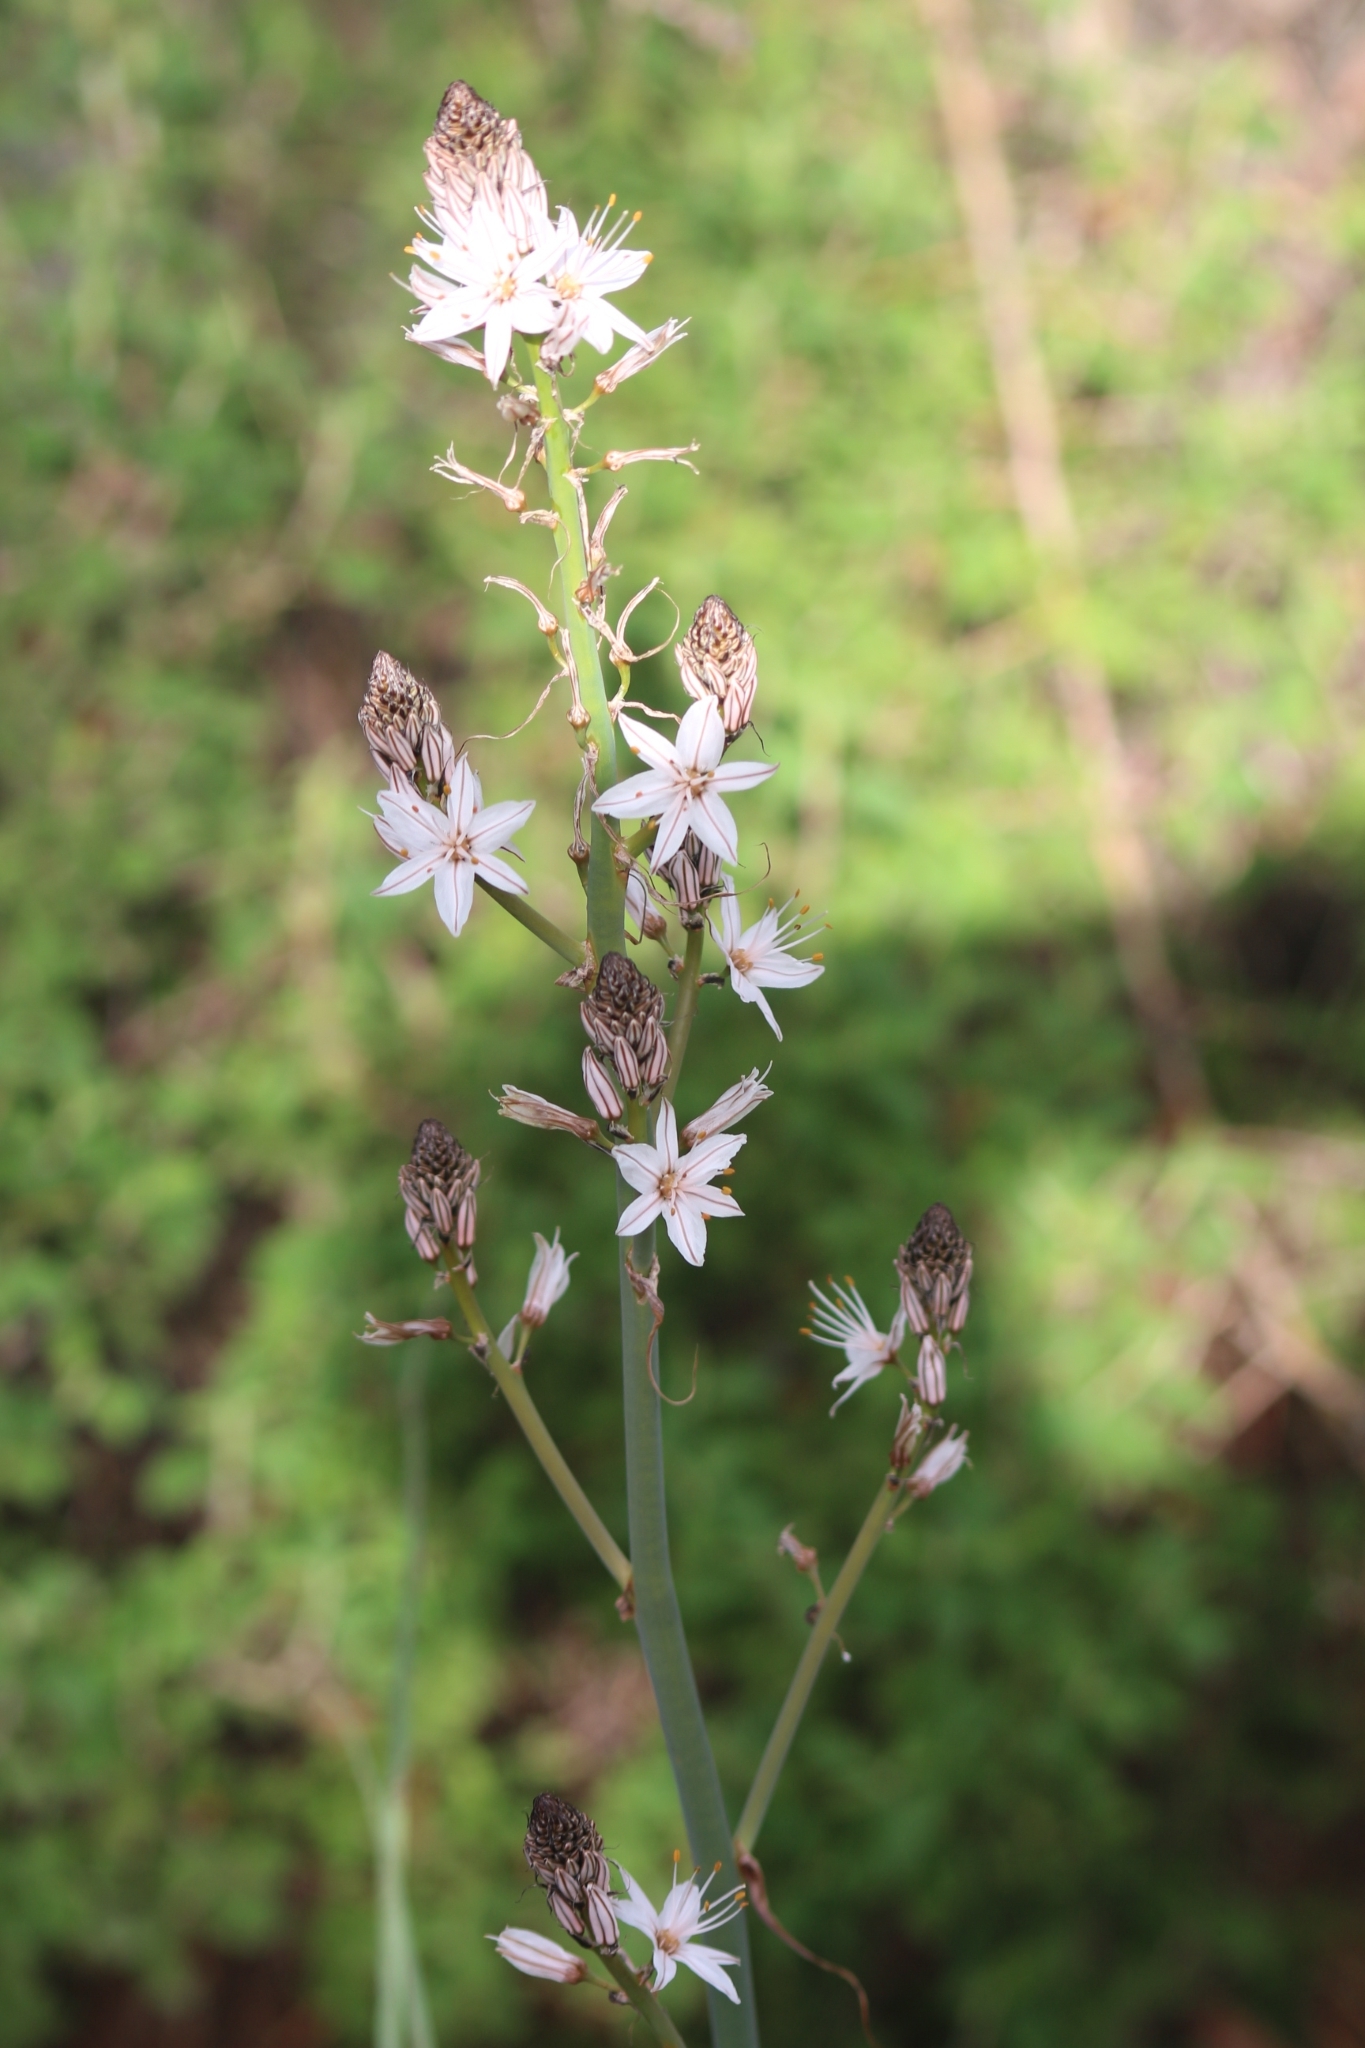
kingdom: Plantae
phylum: Tracheophyta
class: Liliopsida
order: Asparagales
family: Asphodelaceae
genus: Asphodelus
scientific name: Asphodelus ramosus
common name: Silverrod
